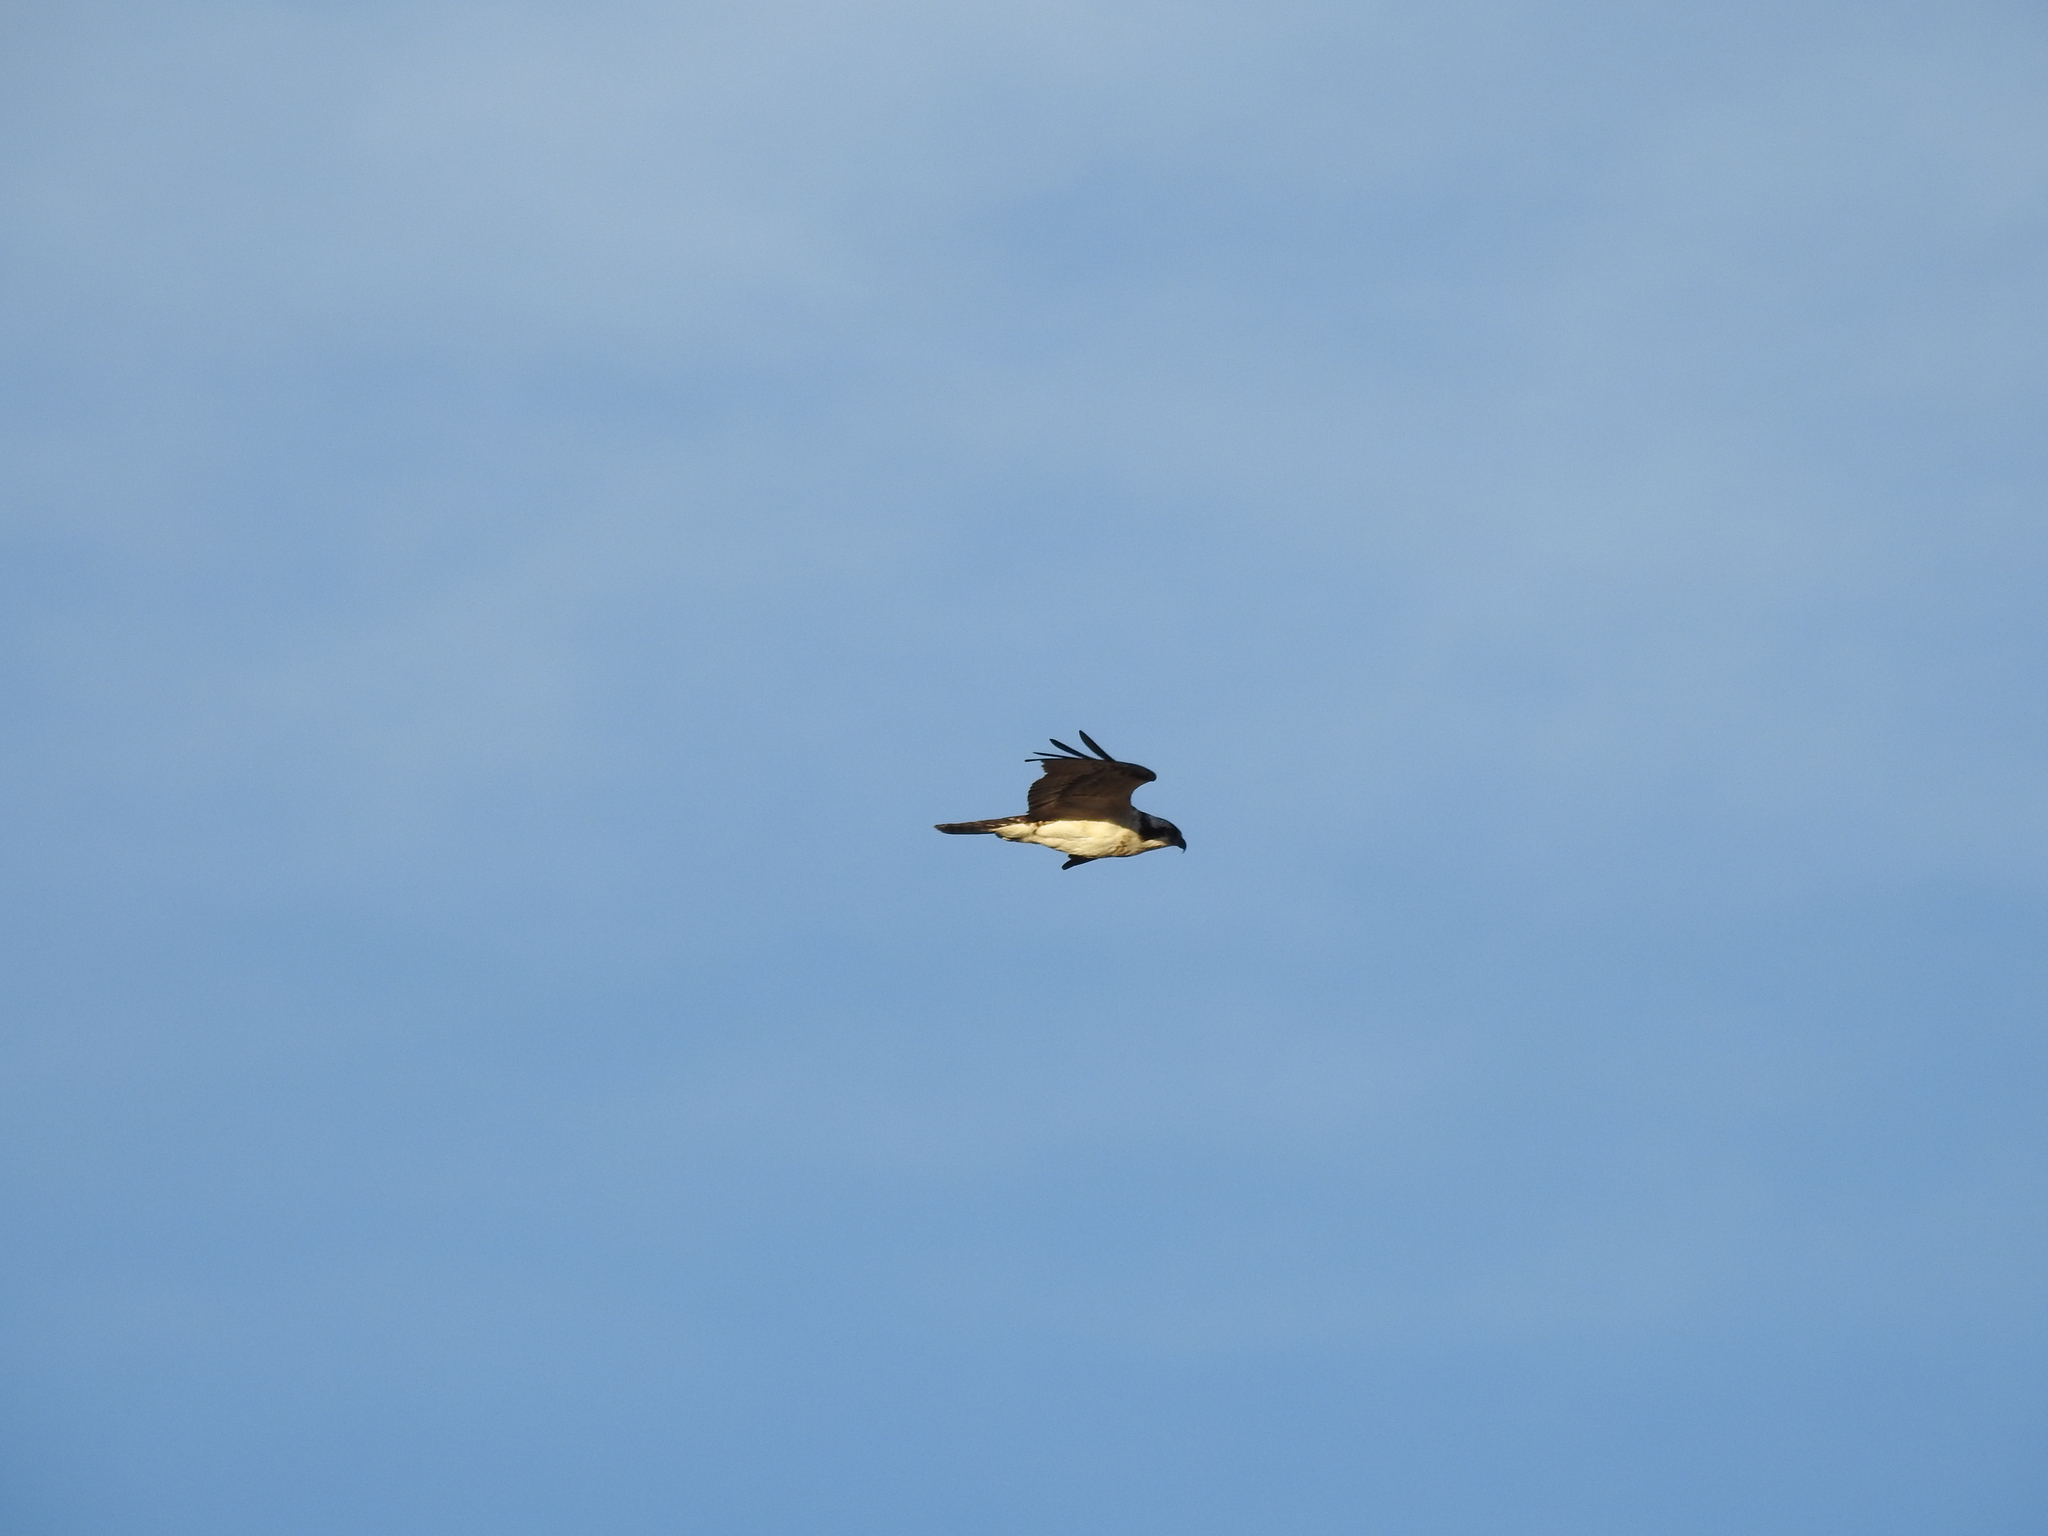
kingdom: Animalia
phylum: Chordata
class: Aves
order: Accipitriformes
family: Pandionidae
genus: Pandion
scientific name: Pandion haliaetus
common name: Osprey
